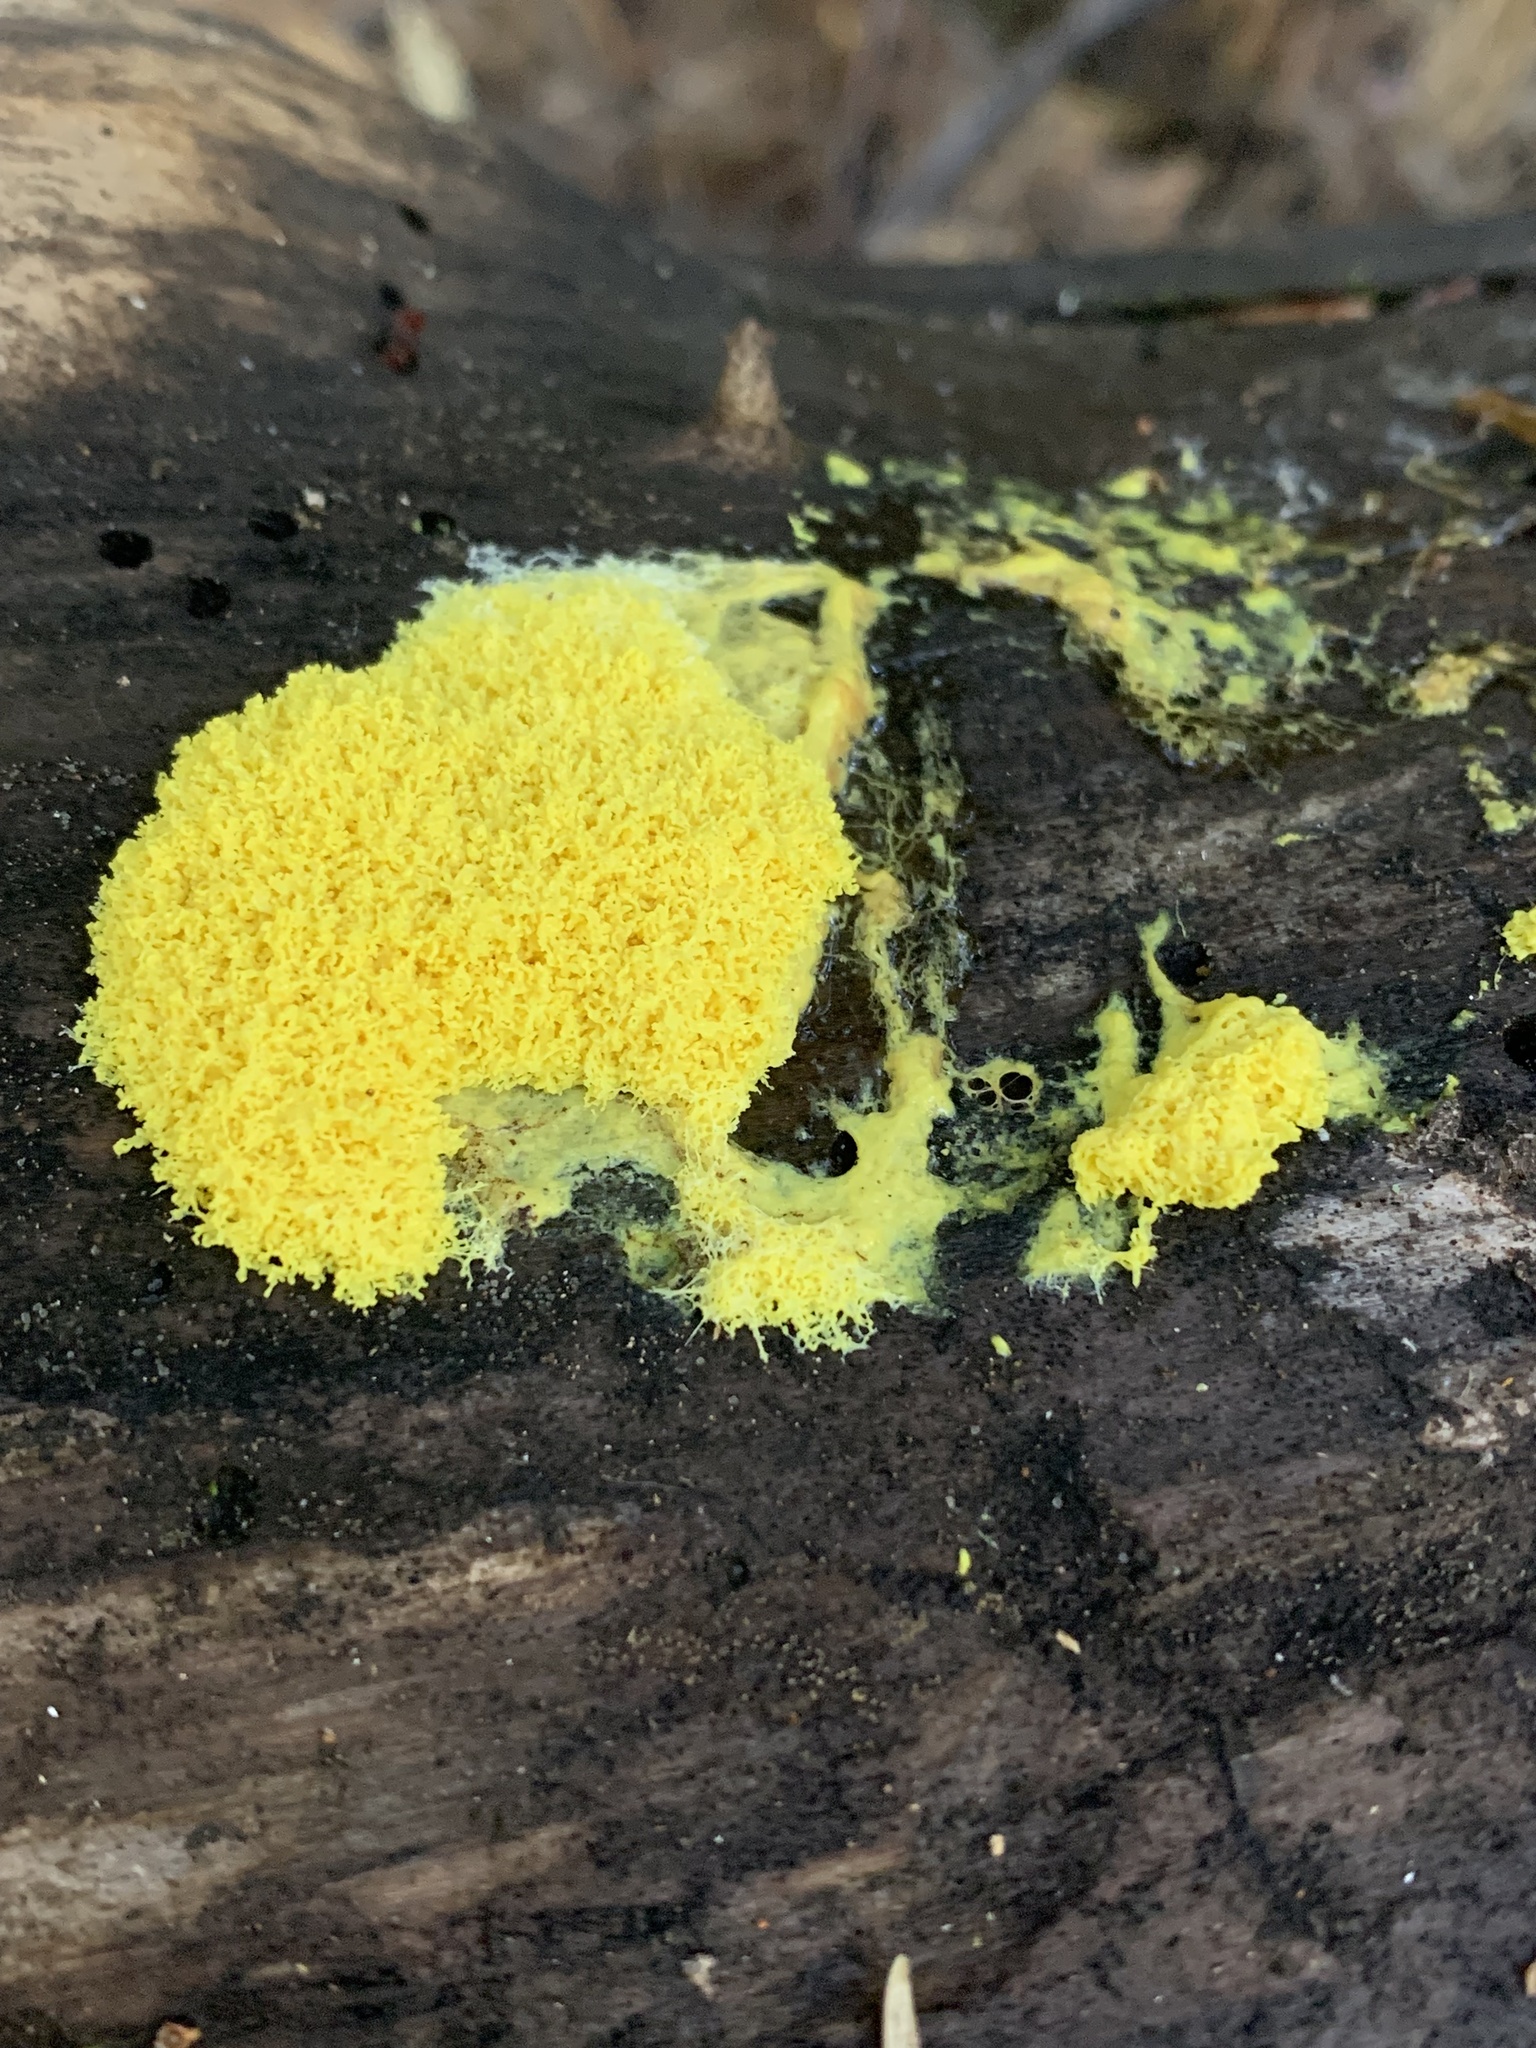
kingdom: Protozoa
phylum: Mycetozoa
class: Myxomycetes
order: Physarales
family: Physaraceae
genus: Fuligo
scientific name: Fuligo septica
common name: Dog vomit slime mold
